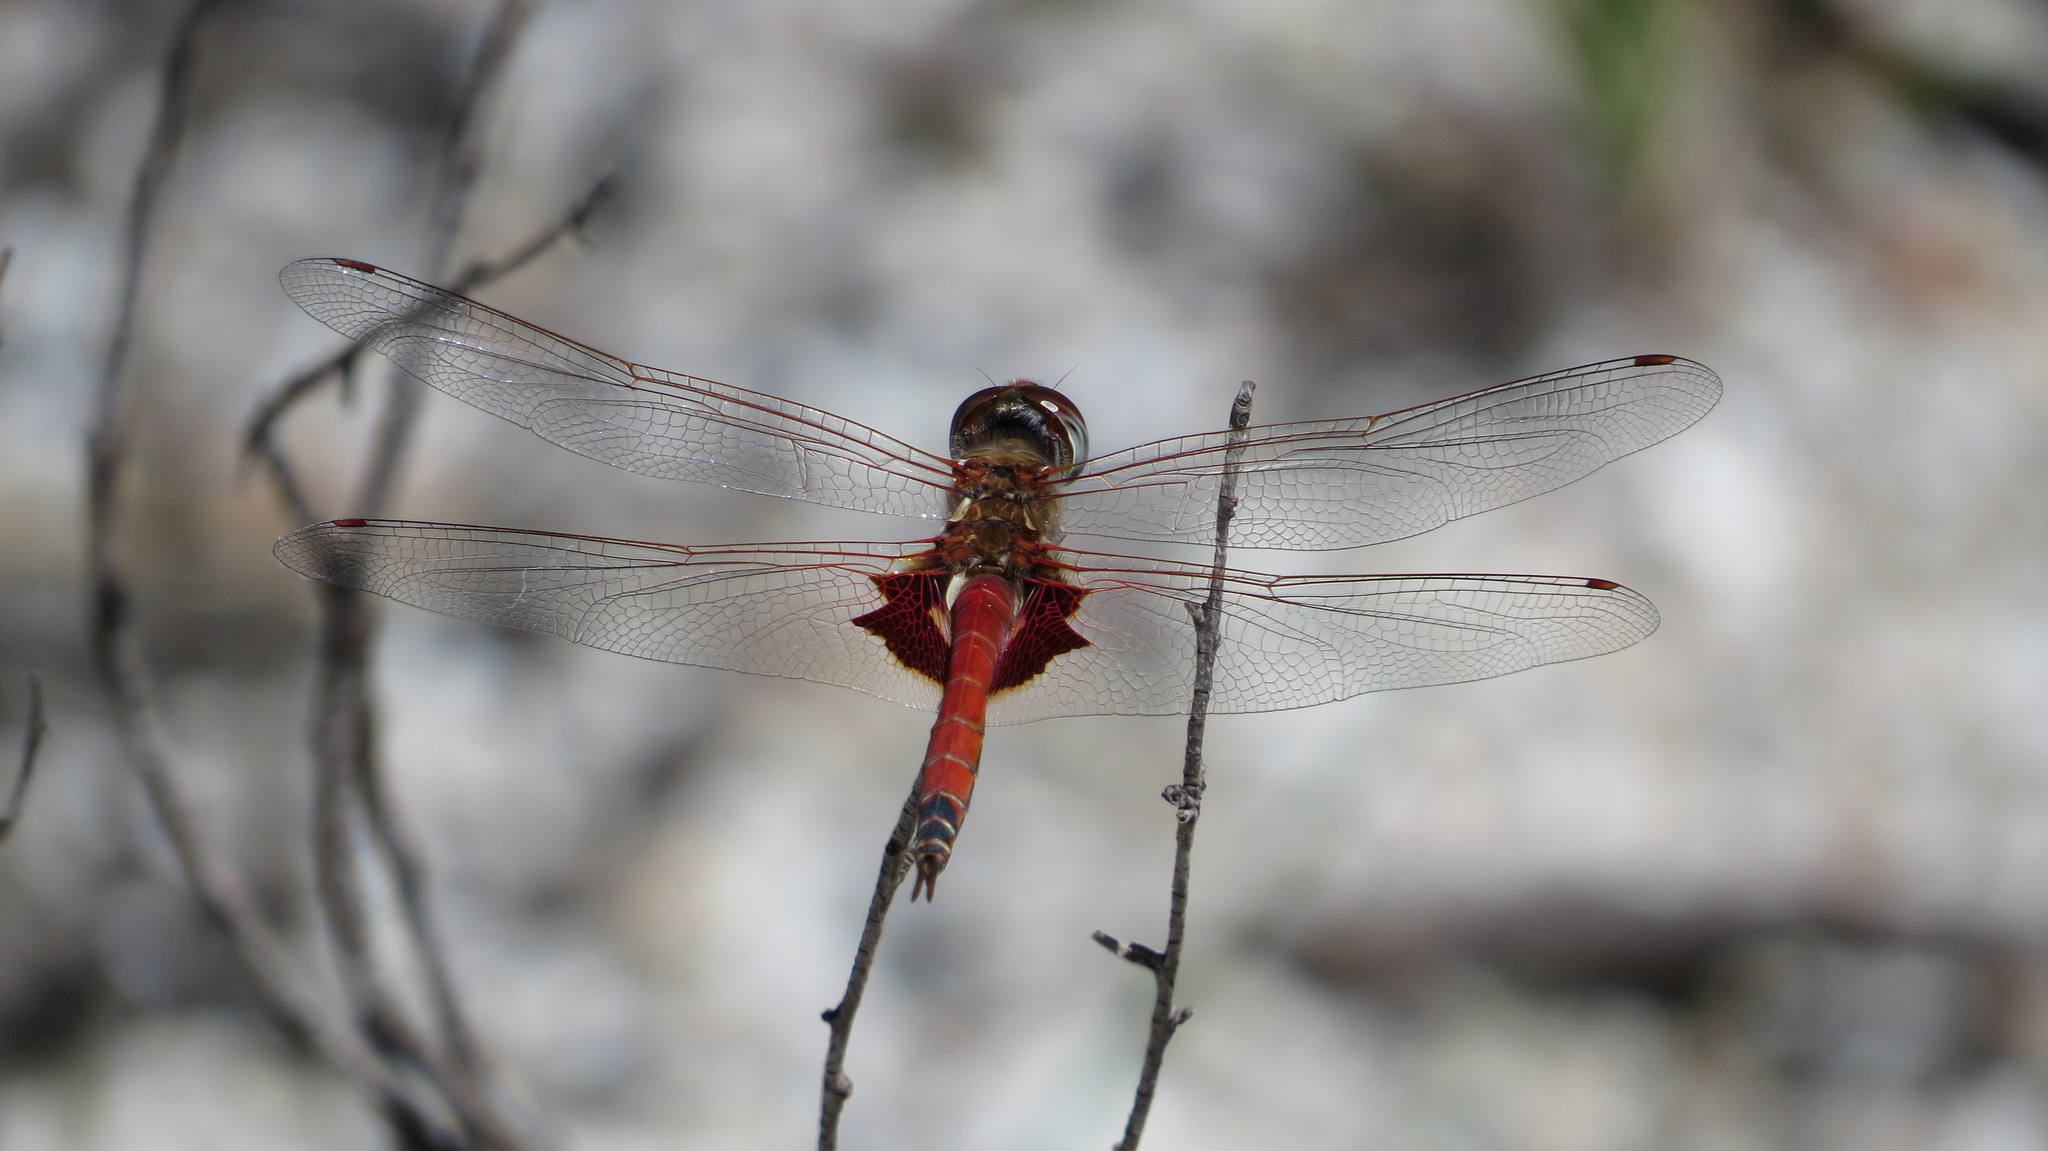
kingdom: Animalia
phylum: Arthropoda
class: Insecta
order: Odonata
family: Libellulidae
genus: Tramea
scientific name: Tramea loewii
